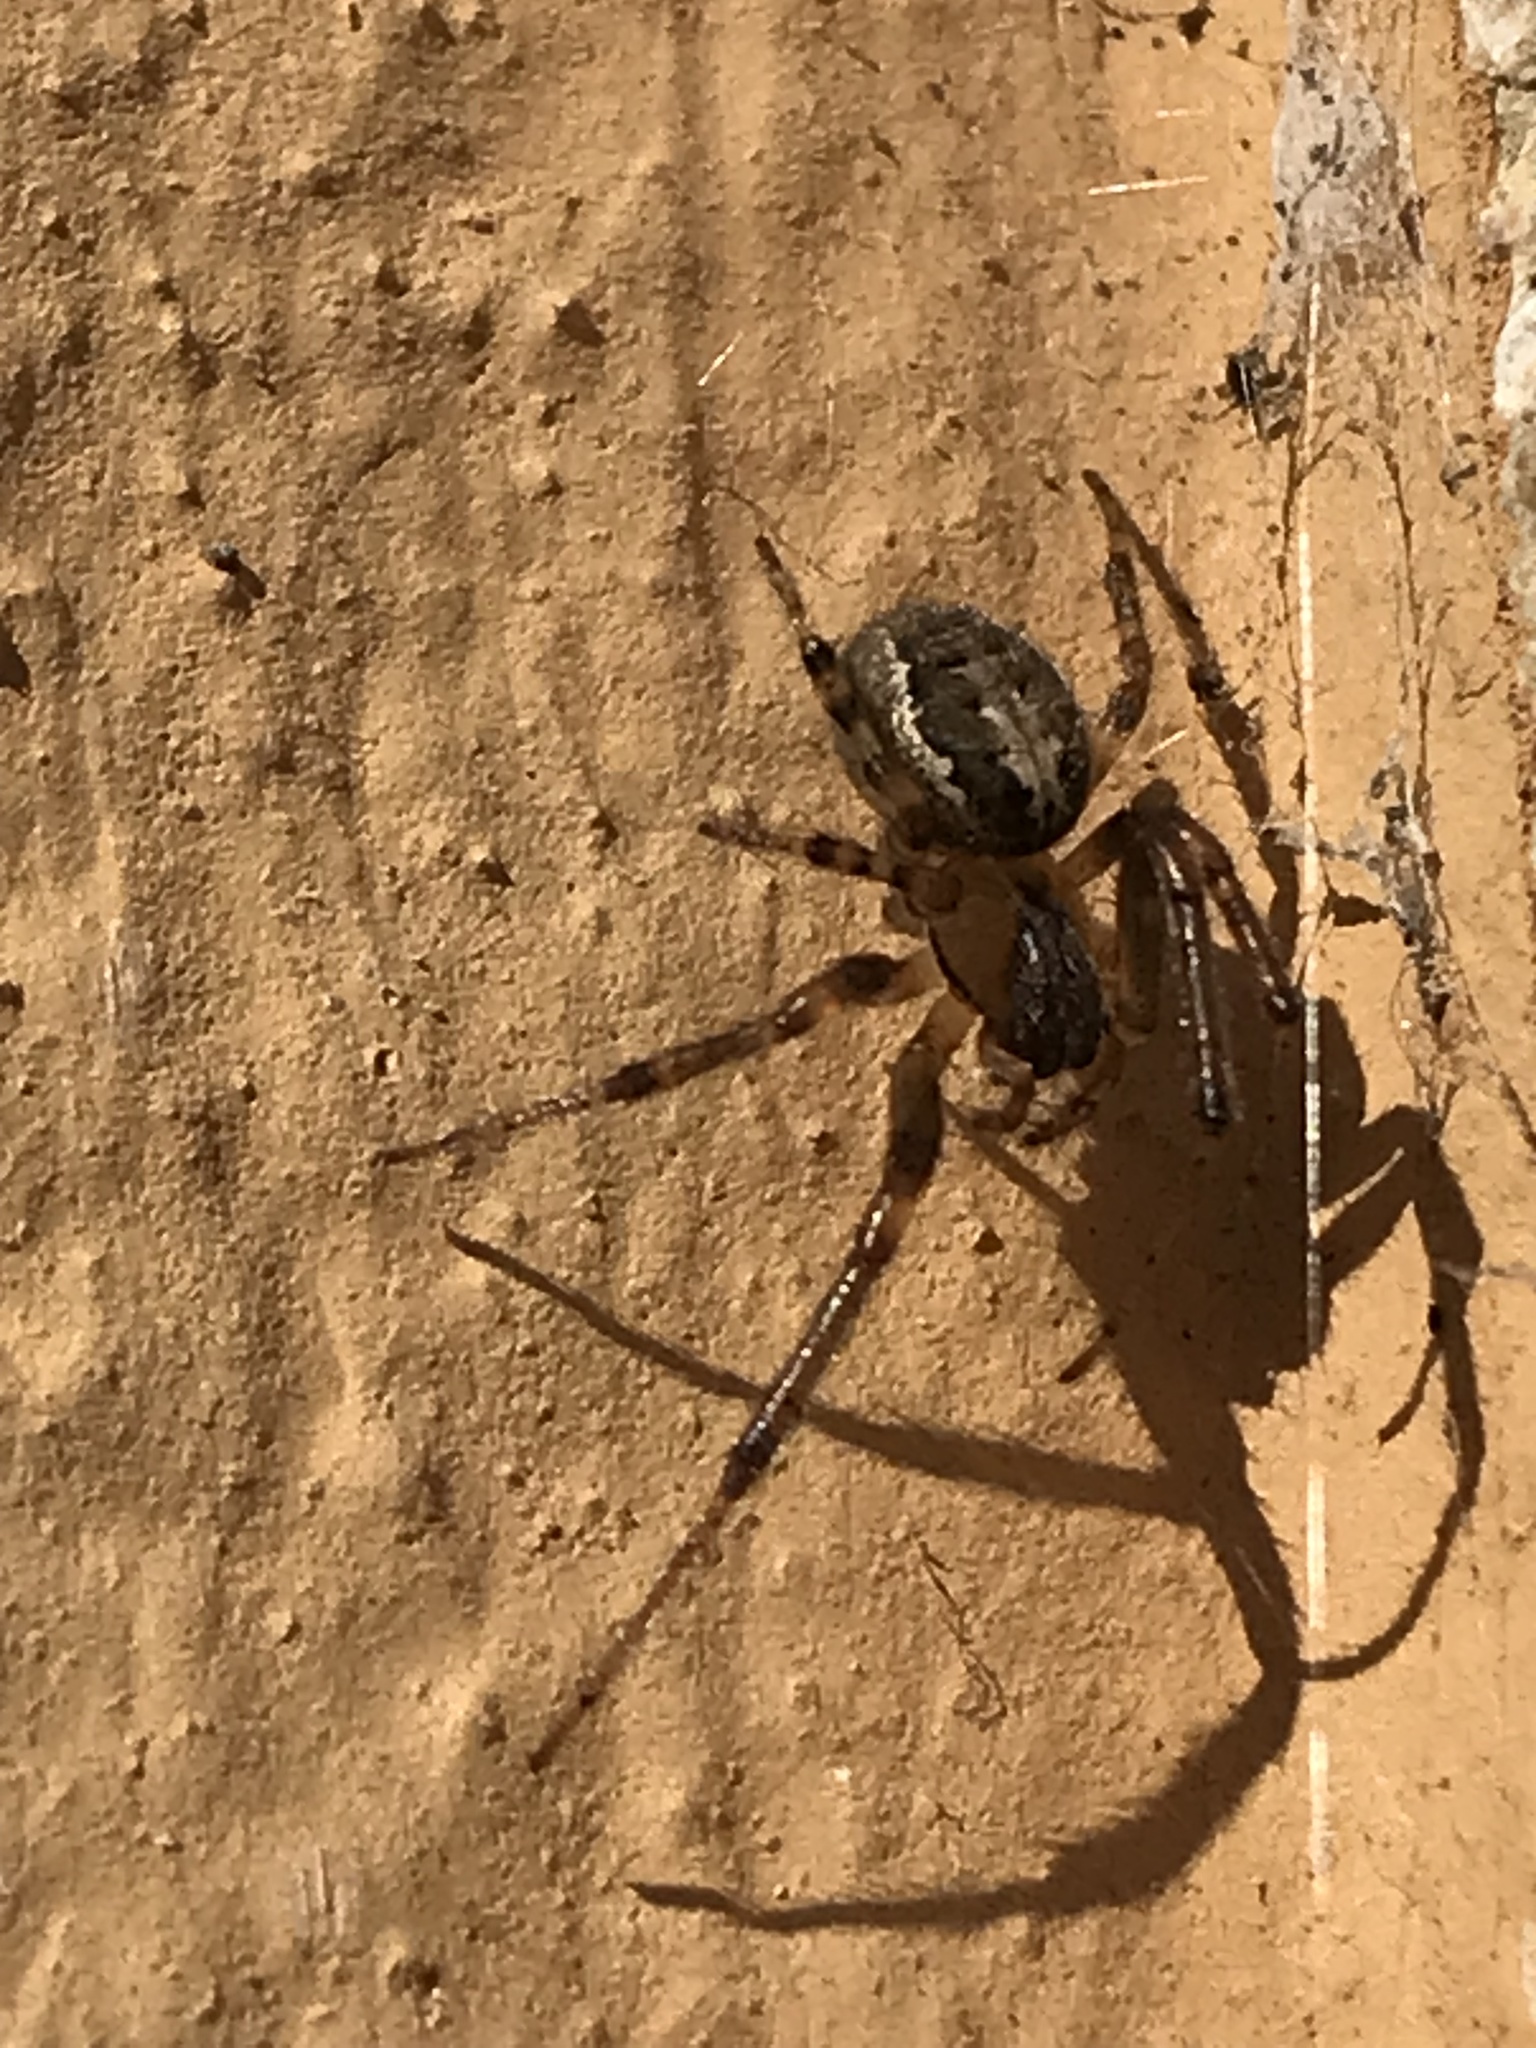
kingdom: Animalia
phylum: Arthropoda
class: Arachnida
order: Araneae
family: Araneidae
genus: Zygiella
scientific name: Zygiella x-notata
